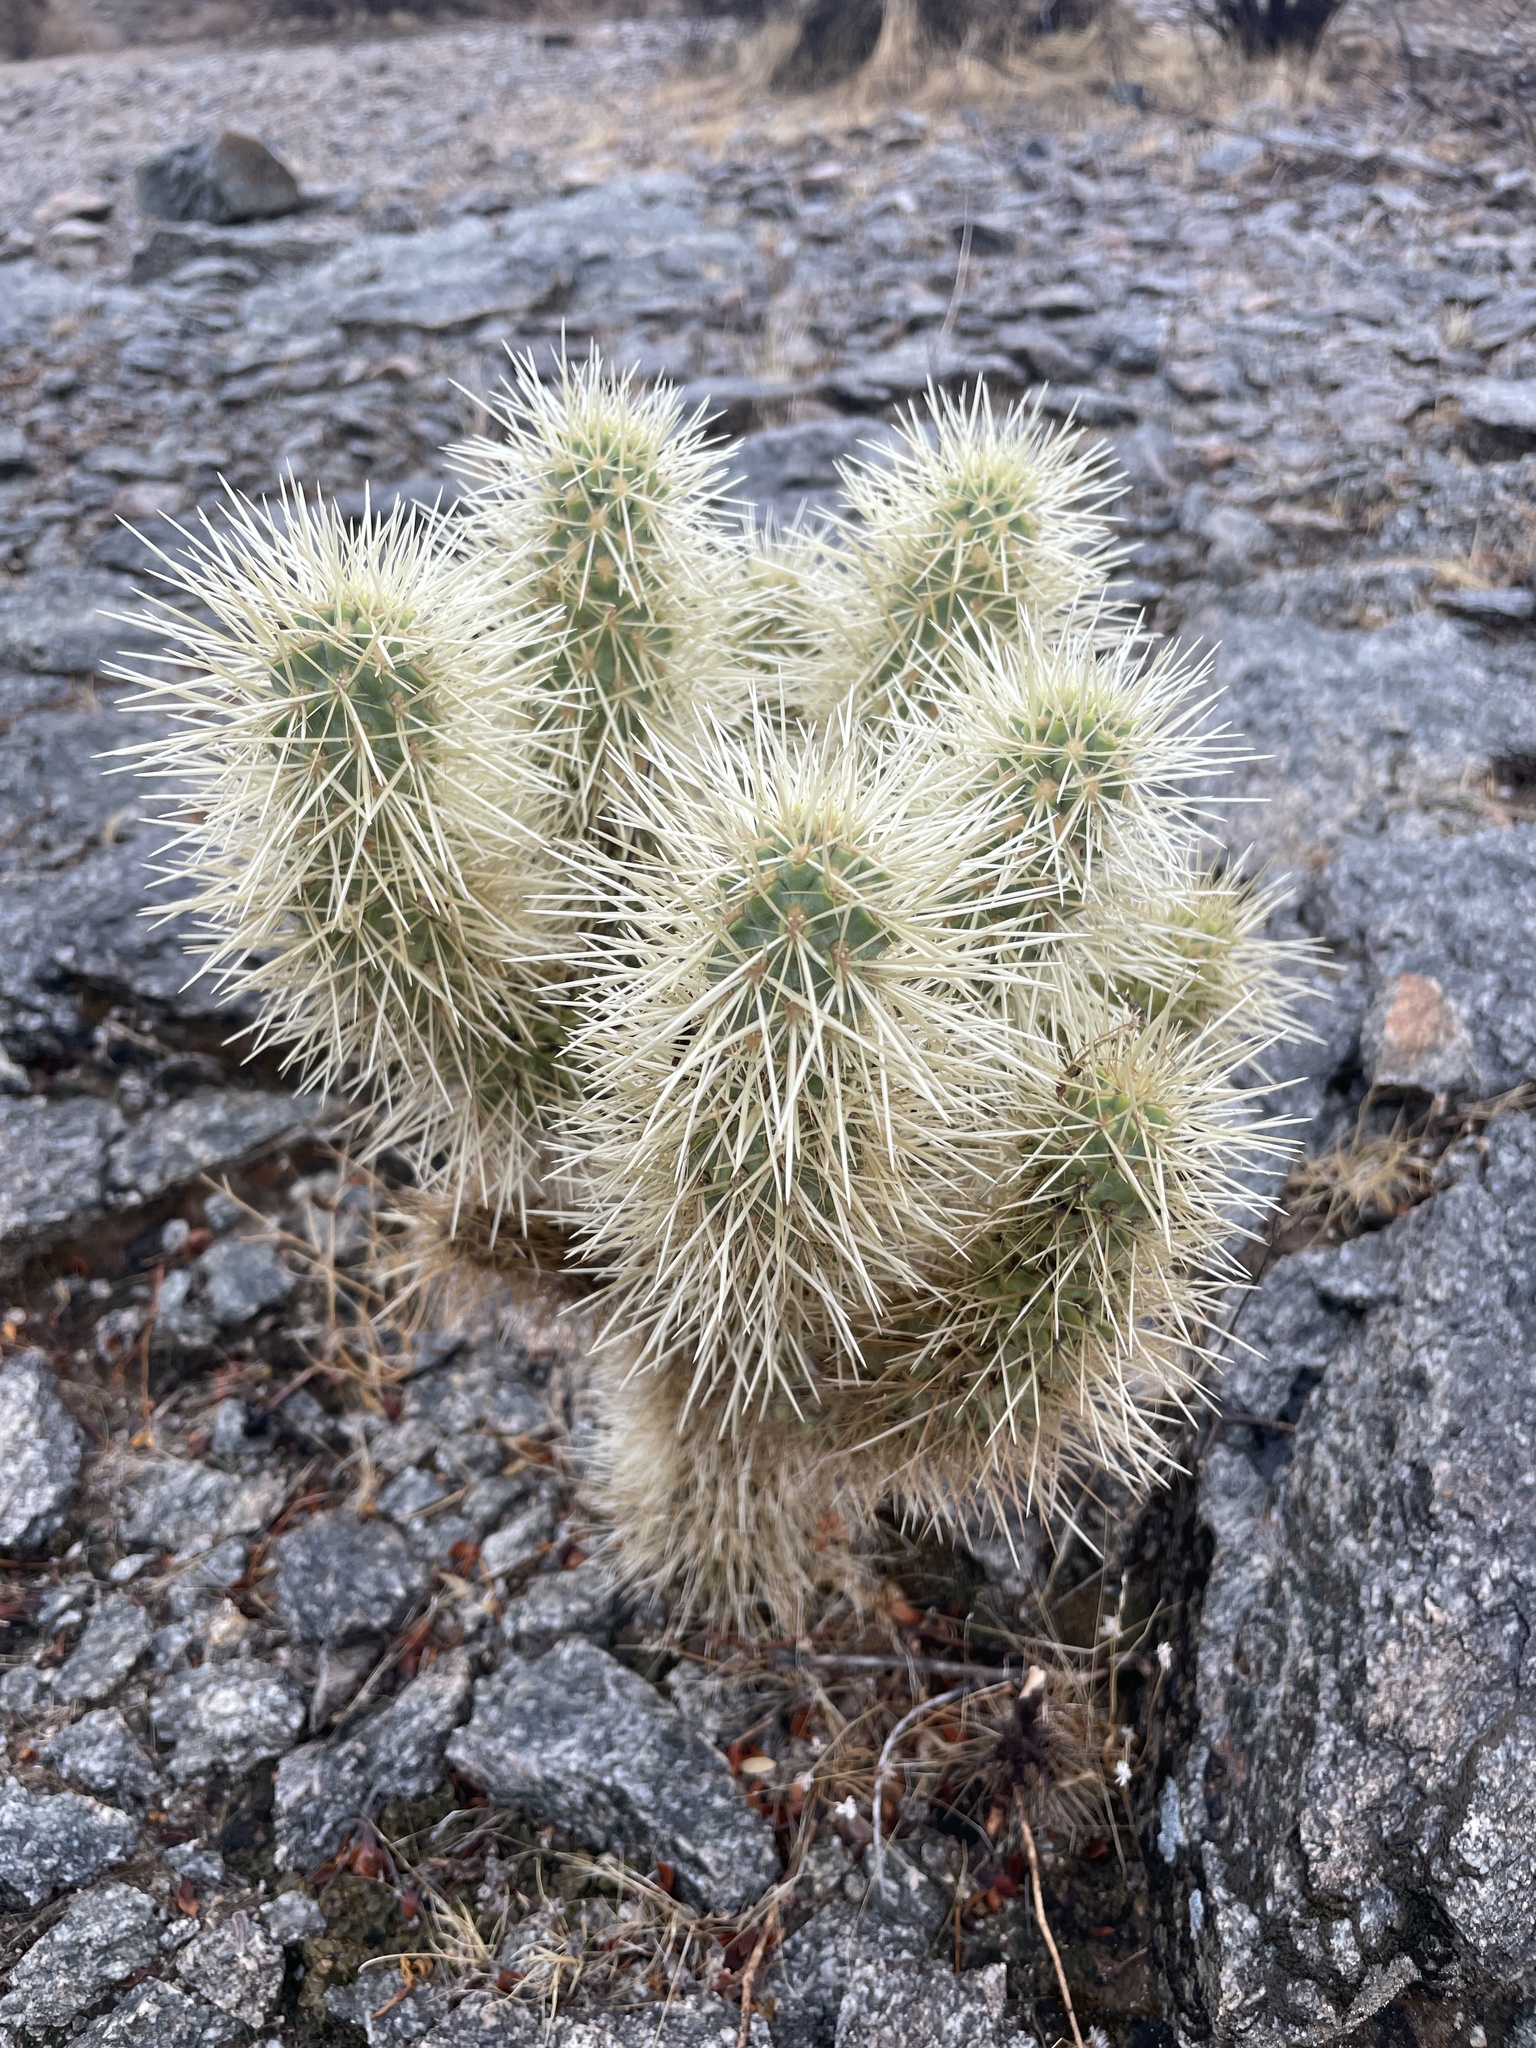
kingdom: Plantae
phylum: Tracheophyta
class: Magnoliopsida
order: Caryophyllales
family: Cactaceae
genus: Cylindropuntia
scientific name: Cylindropuntia fosbergii
